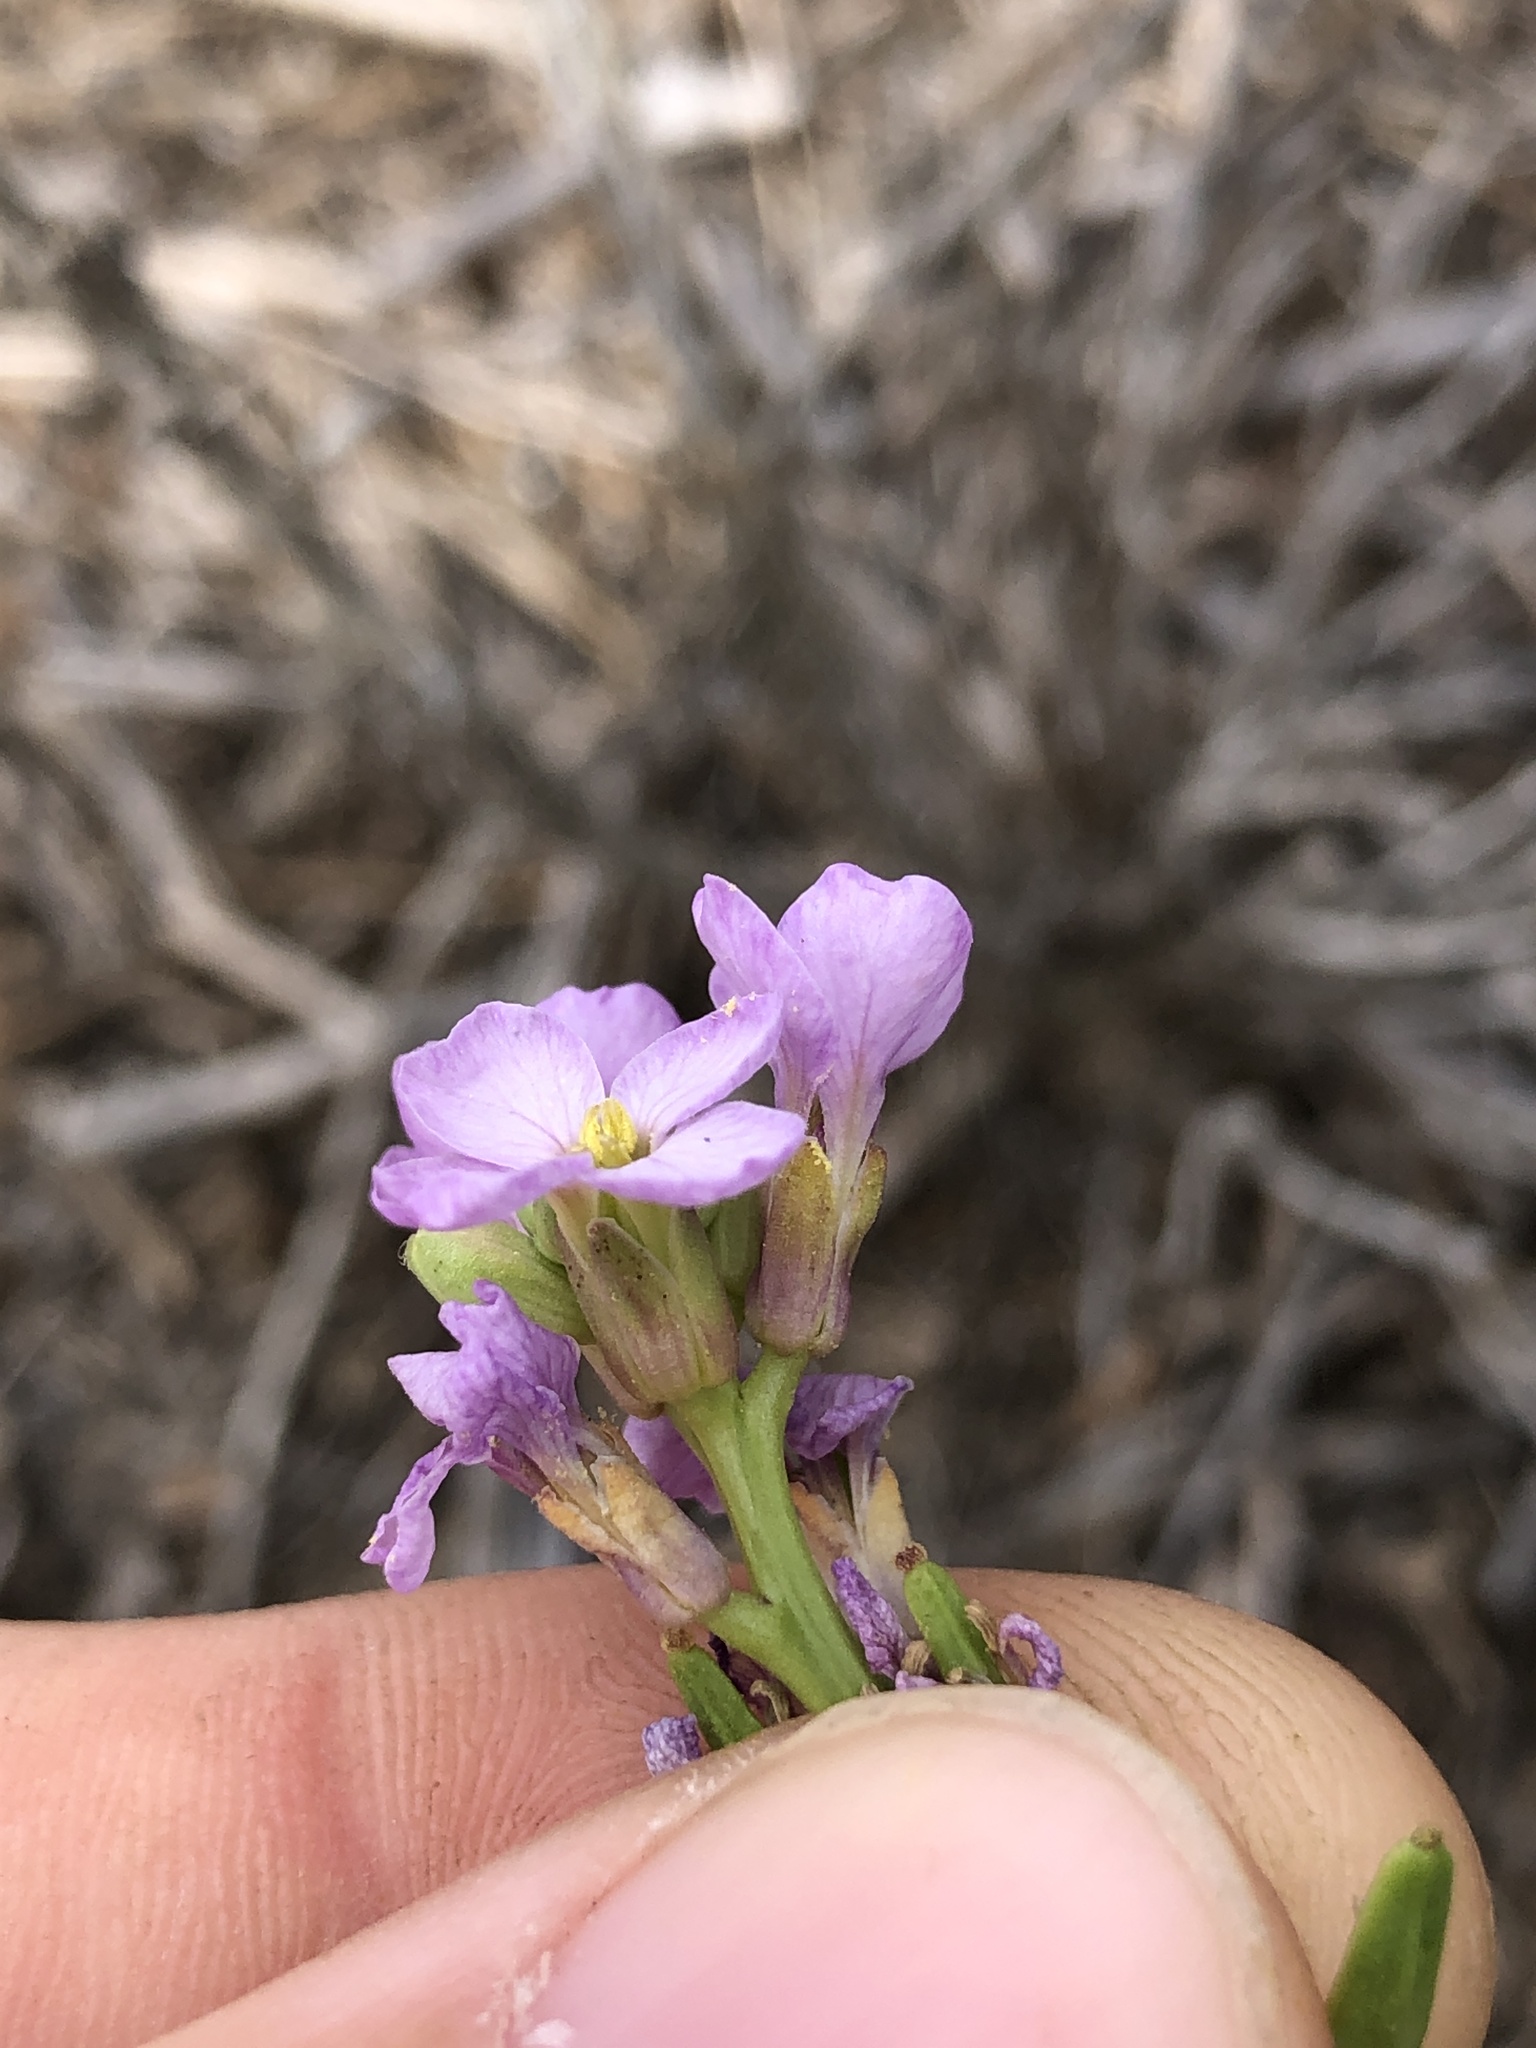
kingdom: Plantae
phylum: Tracheophyta
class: Magnoliopsida
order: Brassicales
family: Brassicaceae
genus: Cakile
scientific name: Cakile maritima
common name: Sea rocket
